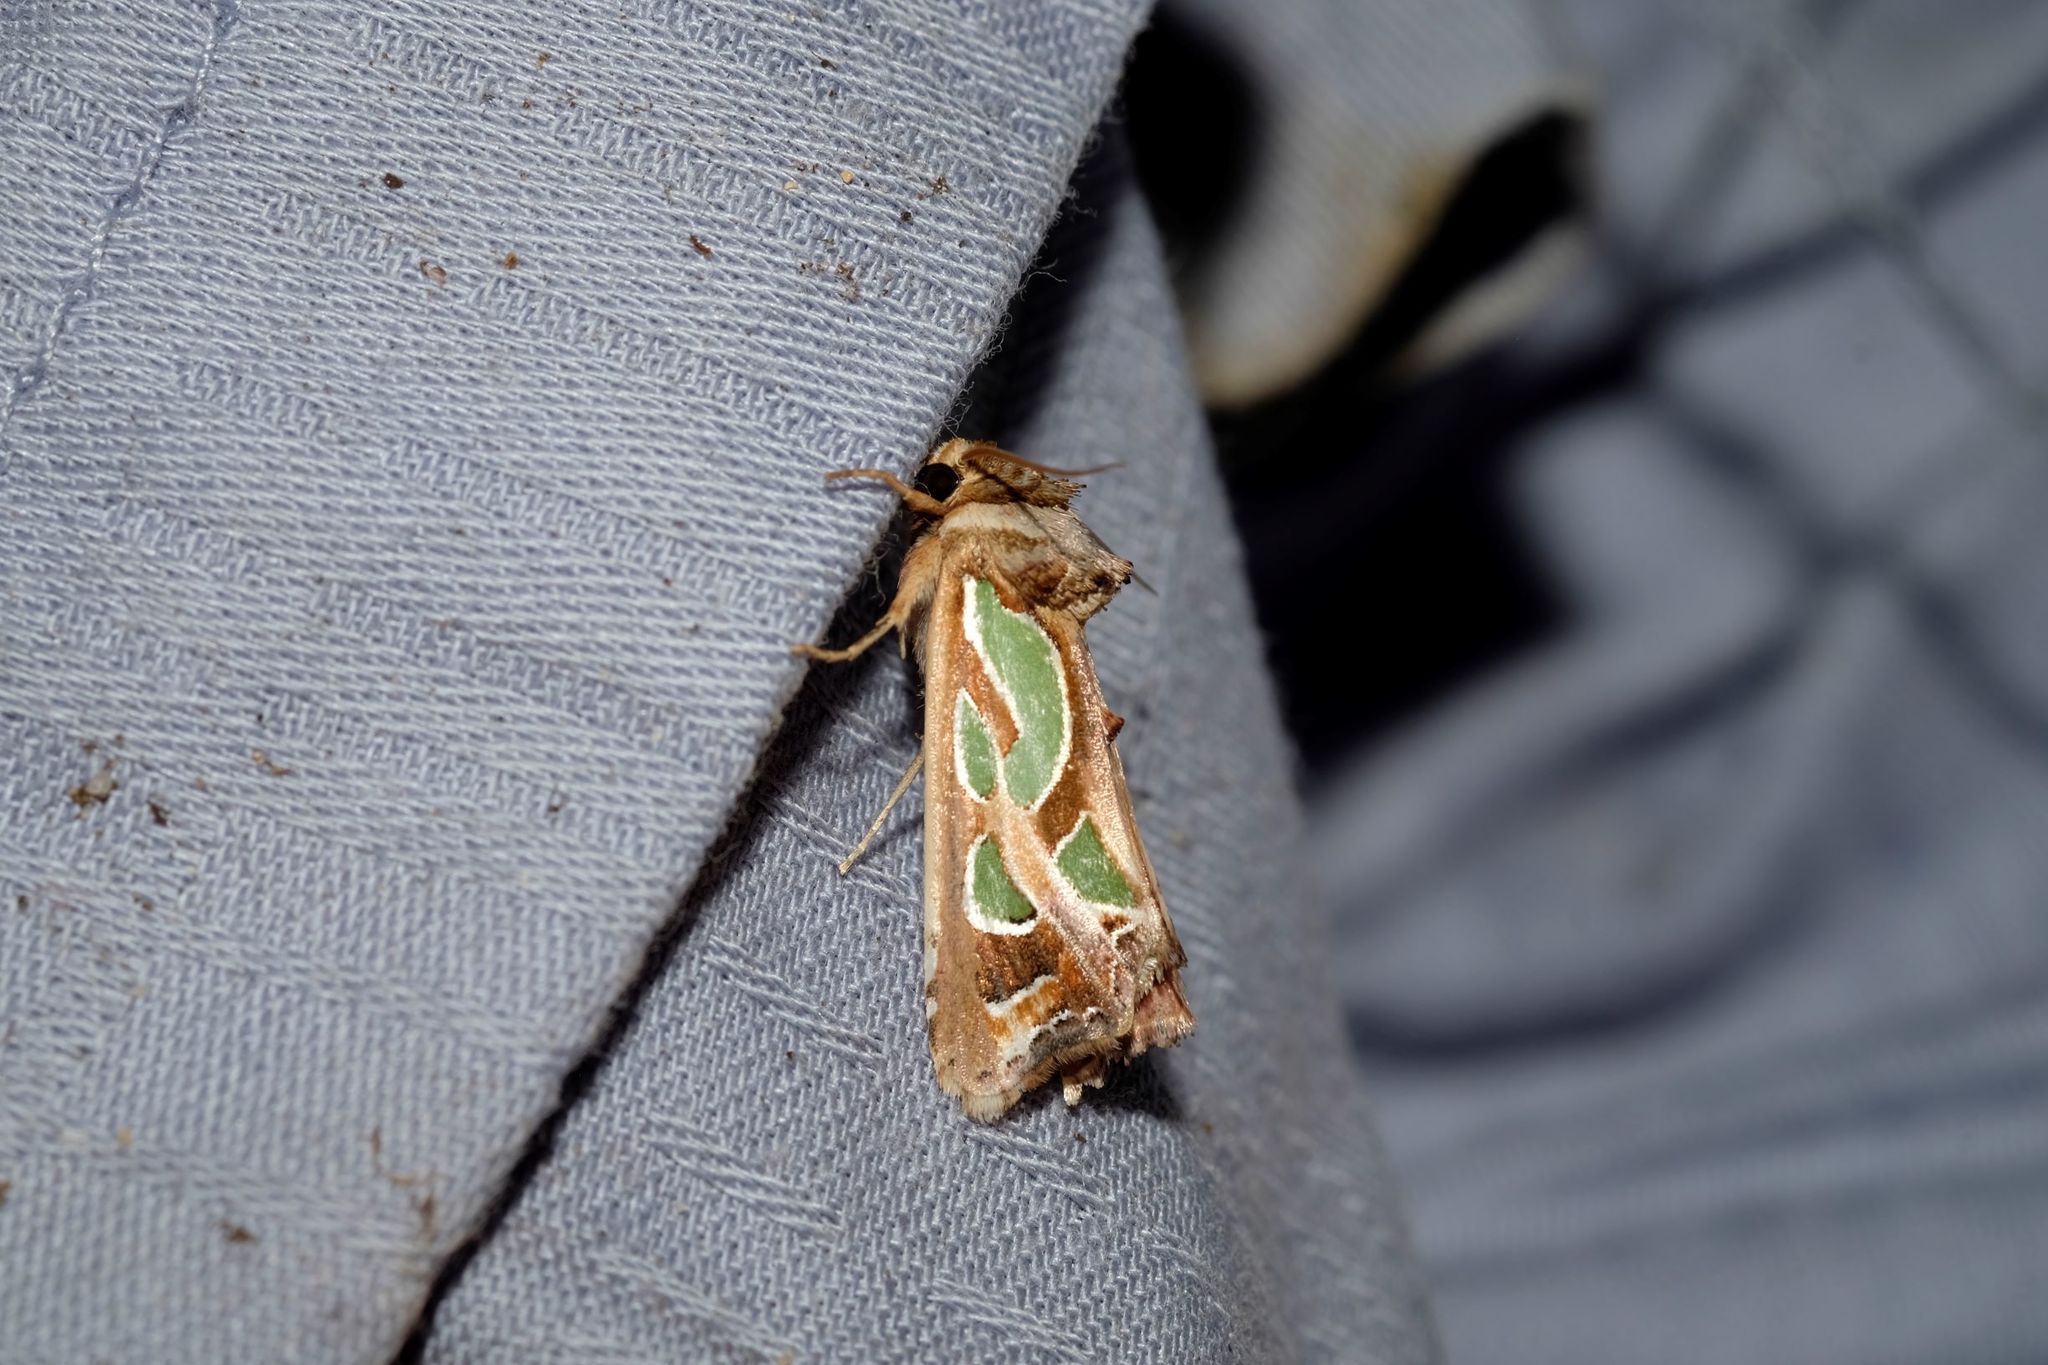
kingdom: Animalia
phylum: Arthropoda
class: Insecta
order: Lepidoptera
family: Noctuidae
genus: Cosmodes
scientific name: Cosmodes elegans
